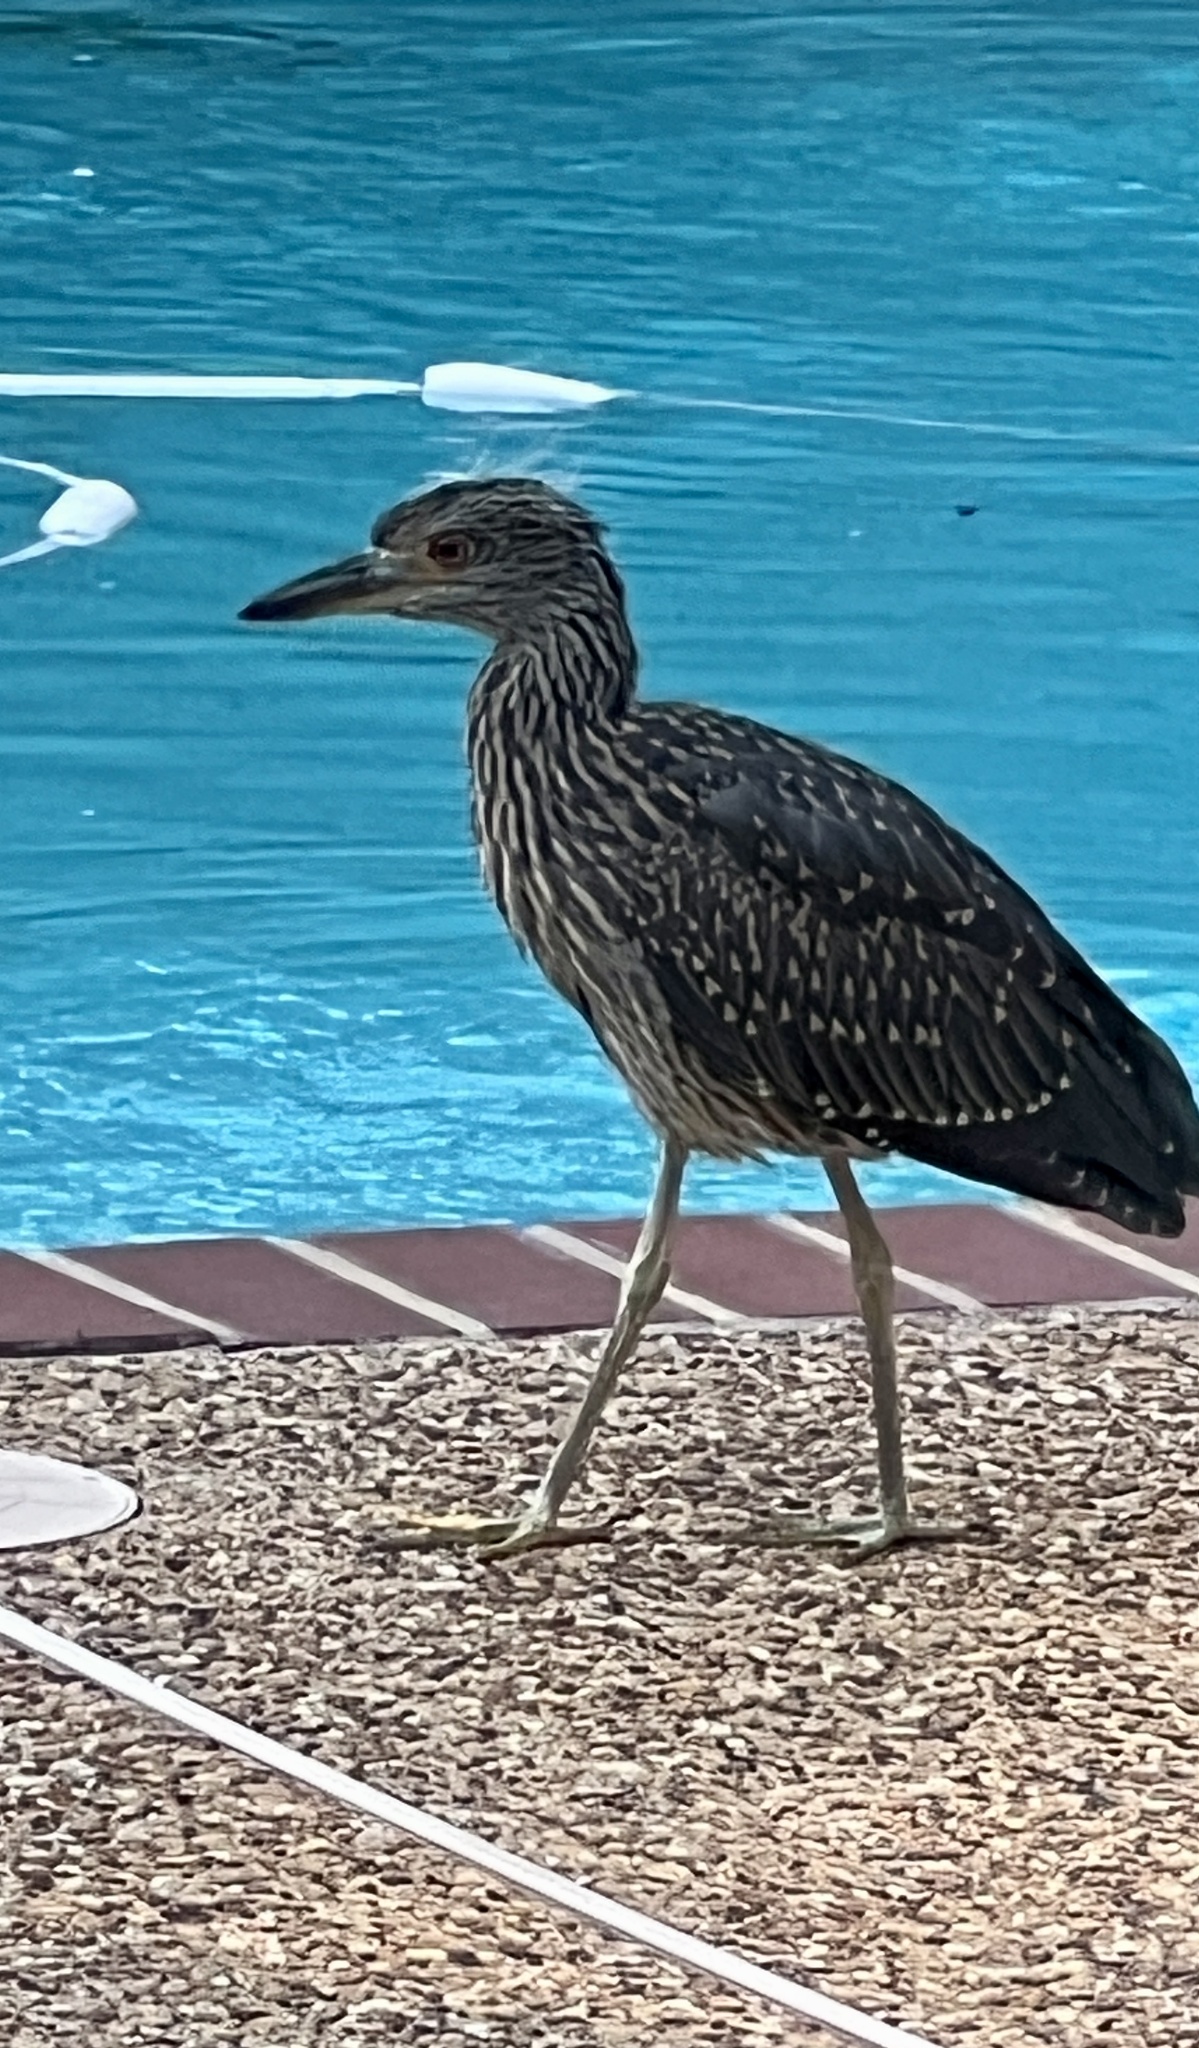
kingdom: Animalia
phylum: Chordata
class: Aves
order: Pelecaniformes
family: Ardeidae
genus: Nyctanassa
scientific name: Nyctanassa violacea
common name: Yellow-crowned night heron
